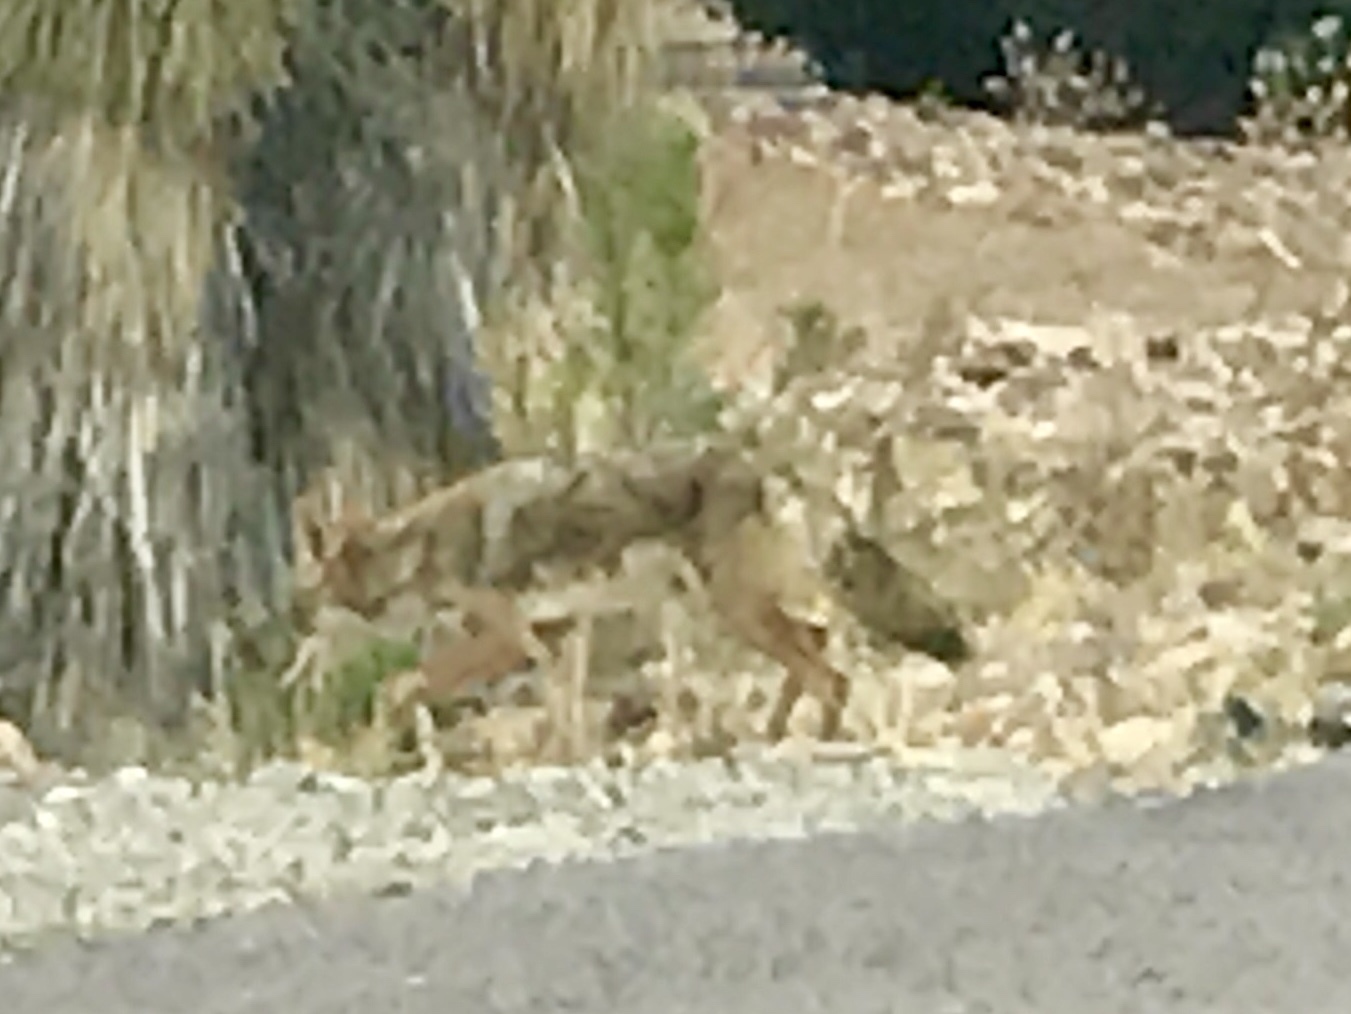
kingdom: Animalia
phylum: Chordata
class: Mammalia
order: Carnivora
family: Canidae
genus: Canis
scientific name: Canis latrans
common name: Coyote
